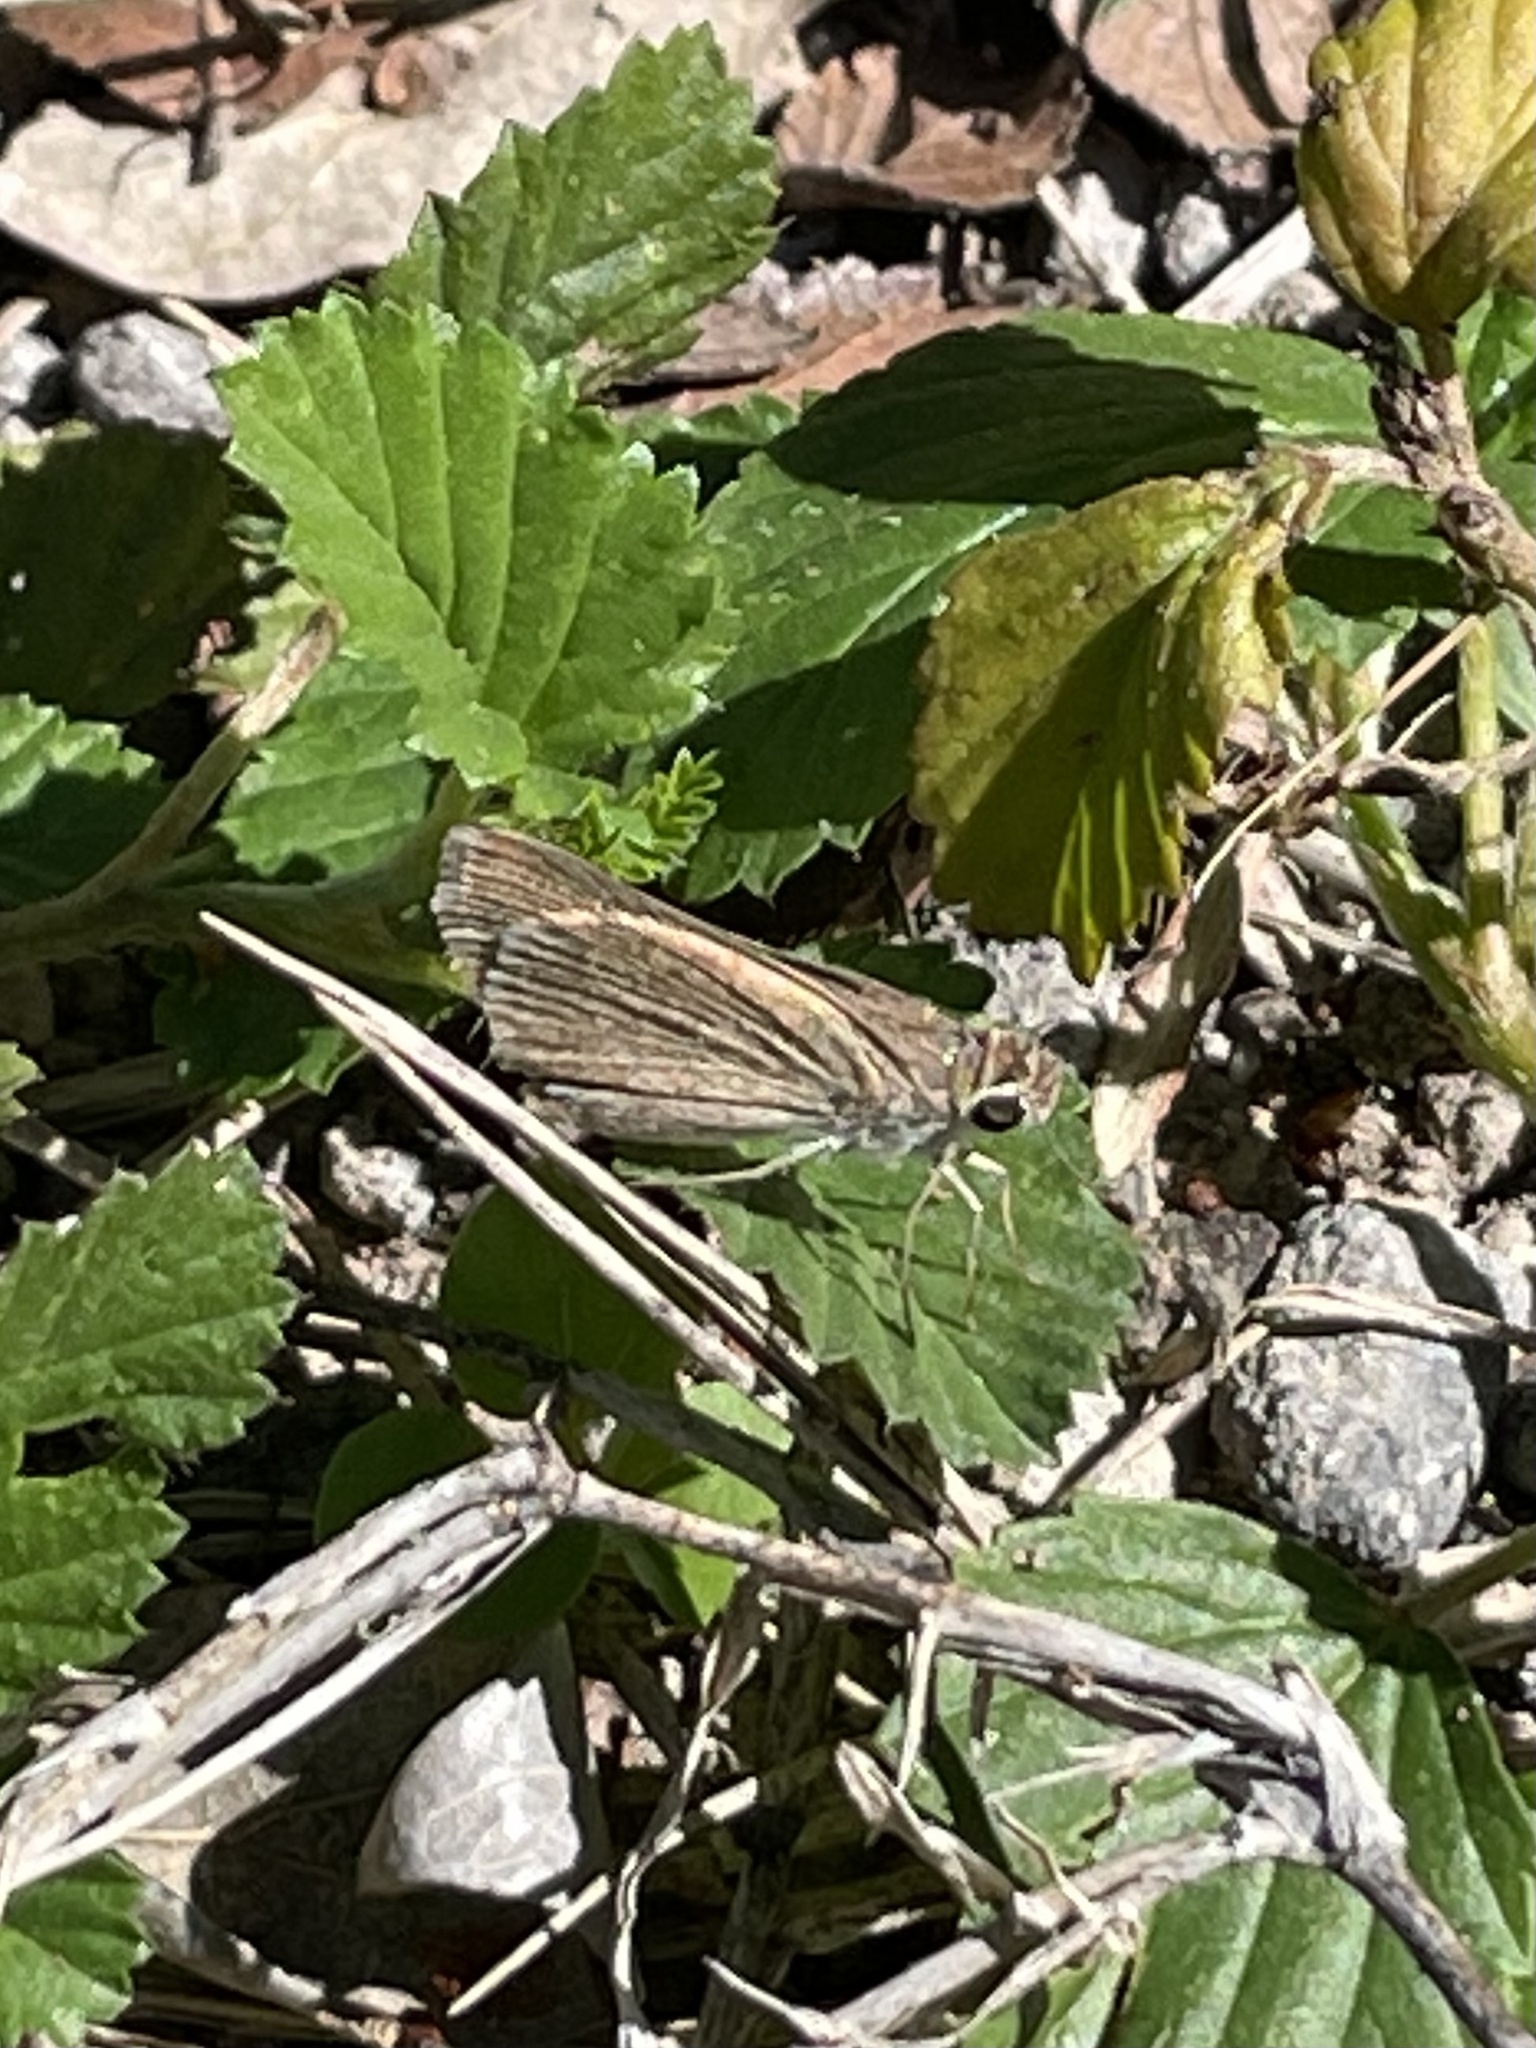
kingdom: Animalia
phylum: Arthropoda
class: Insecta
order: Lepidoptera
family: Hesperiidae
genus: Lerodea
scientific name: Lerodea eufala
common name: Eufala skipper
